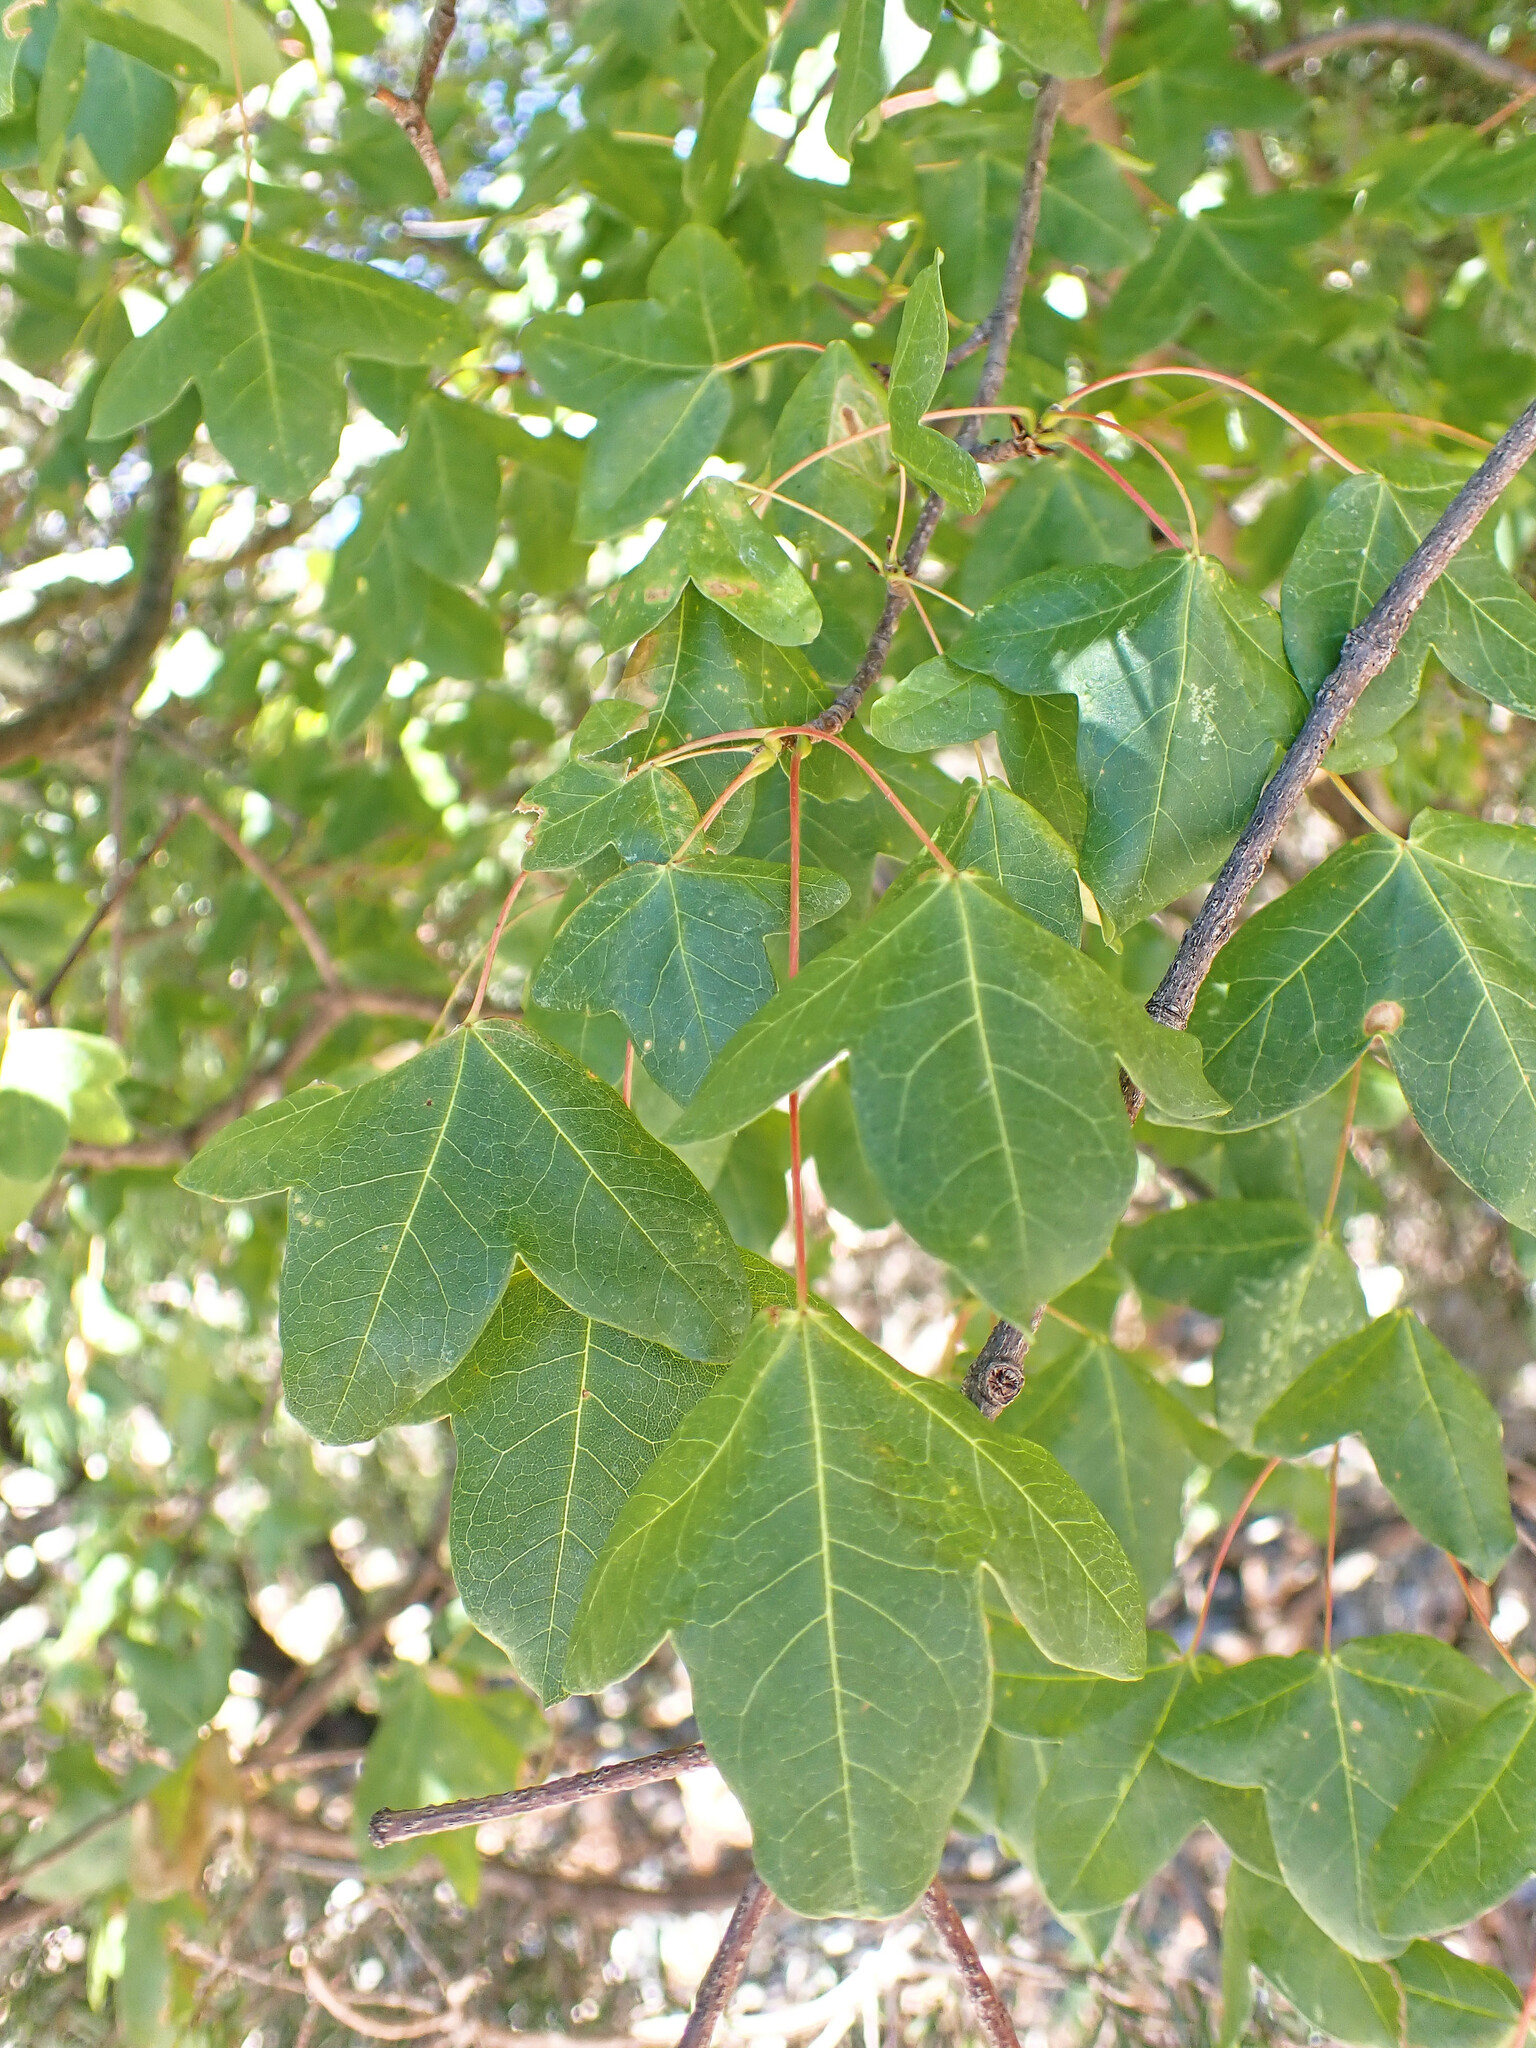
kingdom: Plantae
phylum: Tracheophyta
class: Magnoliopsida
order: Sapindales
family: Sapindaceae
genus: Acer
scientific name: Acer monspessulanum
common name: Montpellier maple
